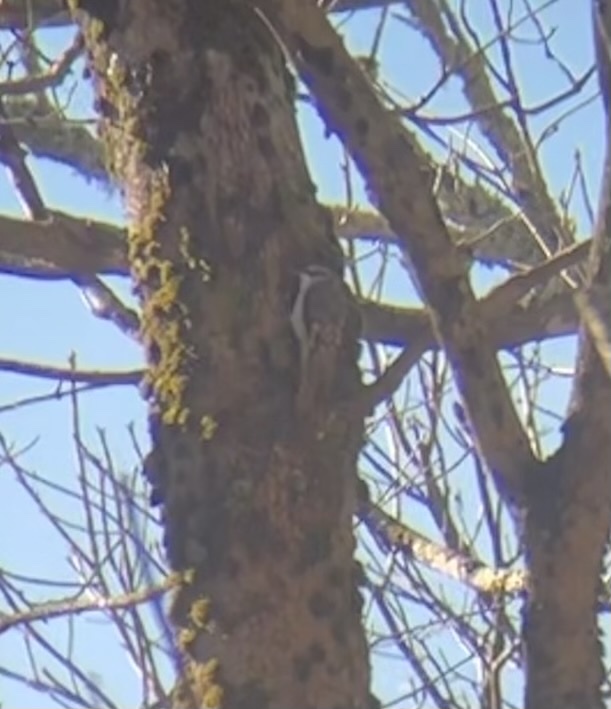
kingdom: Animalia
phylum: Chordata
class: Aves
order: Passeriformes
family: Certhiidae
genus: Certhia
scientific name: Certhia americana
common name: Brown creeper
